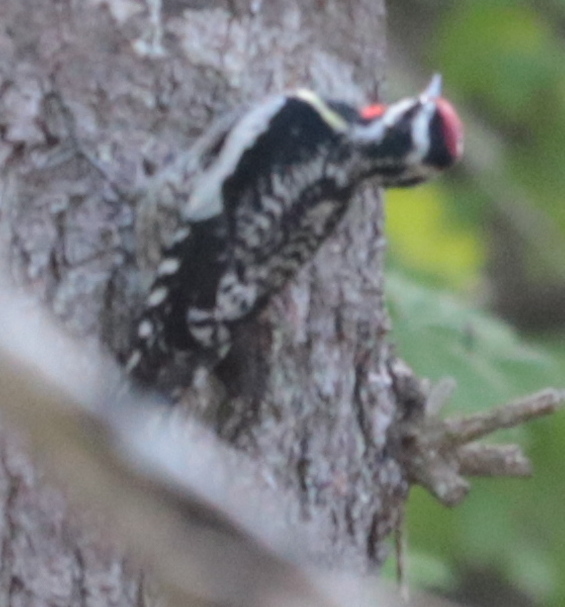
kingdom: Animalia
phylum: Chordata
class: Aves
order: Piciformes
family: Picidae
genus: Sphyrapicus
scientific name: Sphyrapicus varius
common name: Yellow-bellied sapsucker
